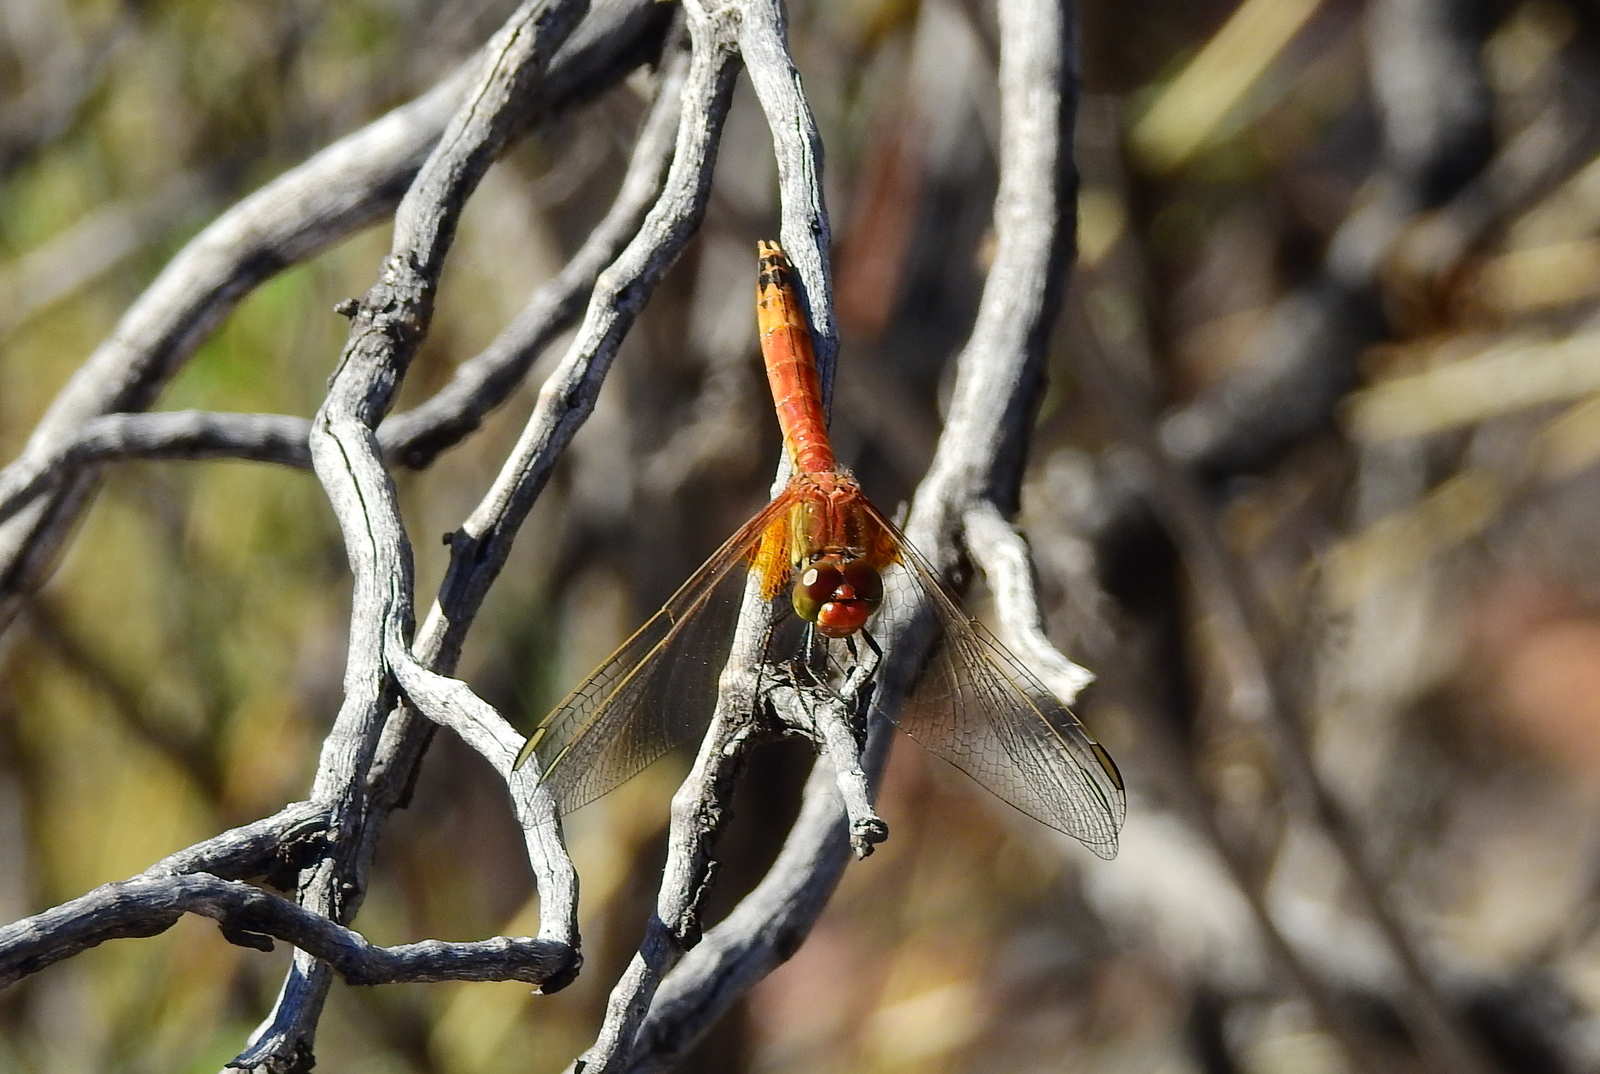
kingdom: Animalia
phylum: Arthropoda
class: Insecta
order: Odonata
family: Libellulidae
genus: Erythrodiplax
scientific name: Erythrodiplax corallina
